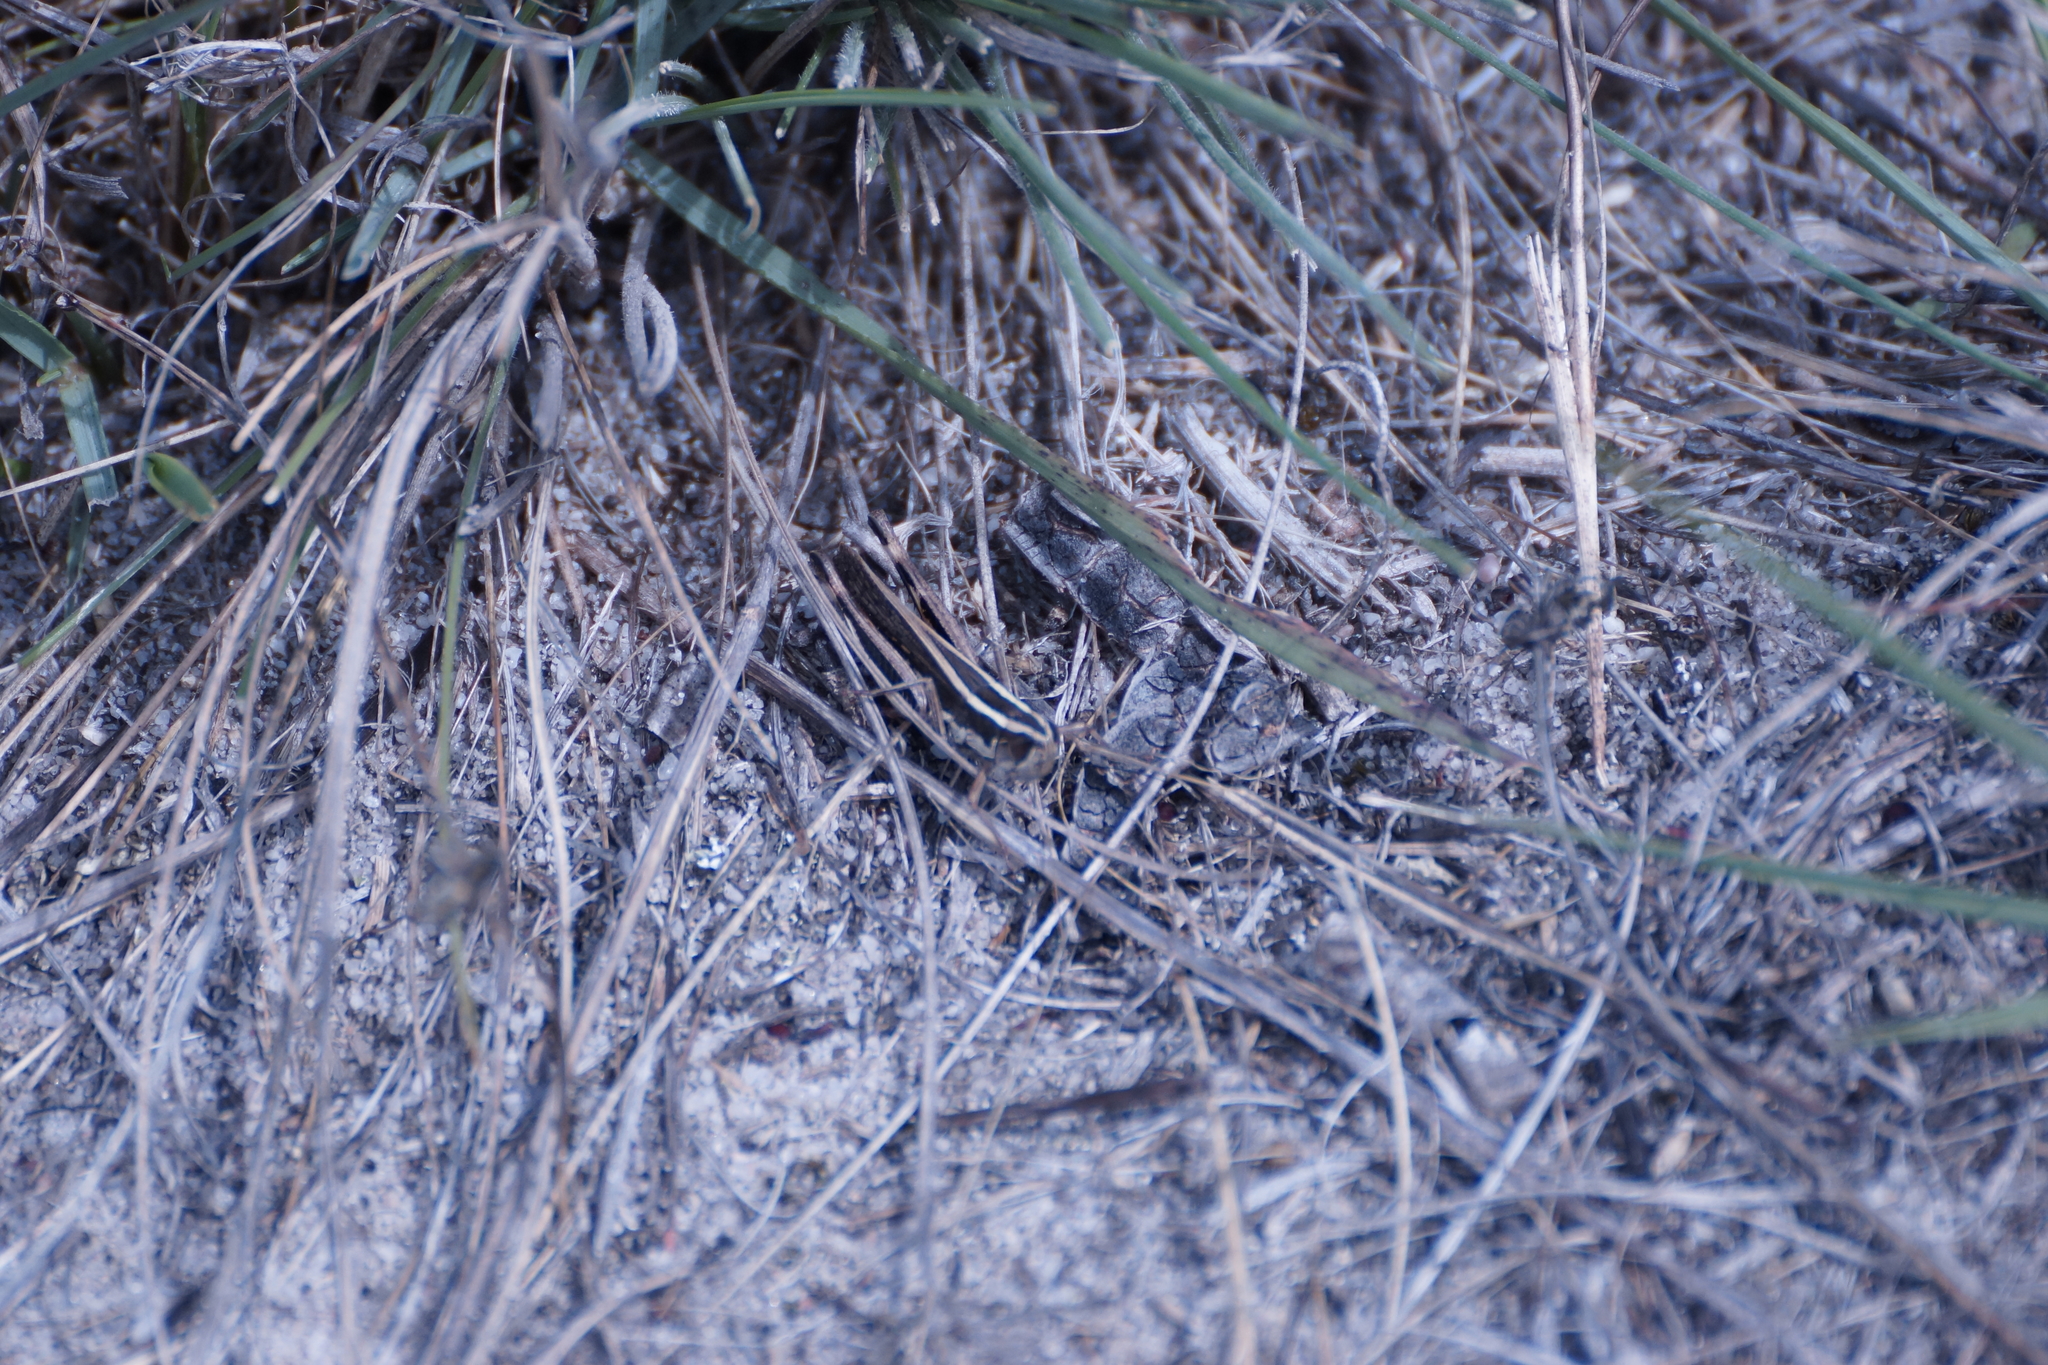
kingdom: Animalia
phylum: Arthropoda
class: Insecta
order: Orthoptera
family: Acrididae
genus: Macrotona
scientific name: Macrotona securiformis
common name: Inland macrotona
